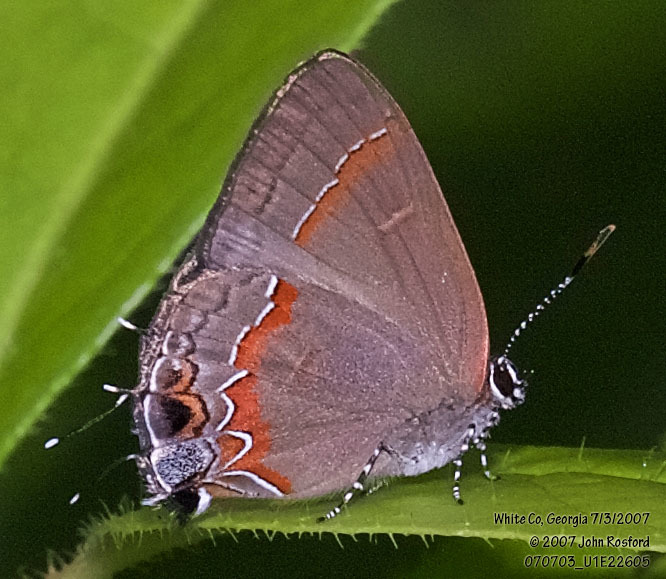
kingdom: Animalia
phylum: Arthropoda
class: Insecta
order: Lepidoptera
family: Lycaenidae
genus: Calycopis
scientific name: Calycopis cecrops
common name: Red-banded hairstreak
